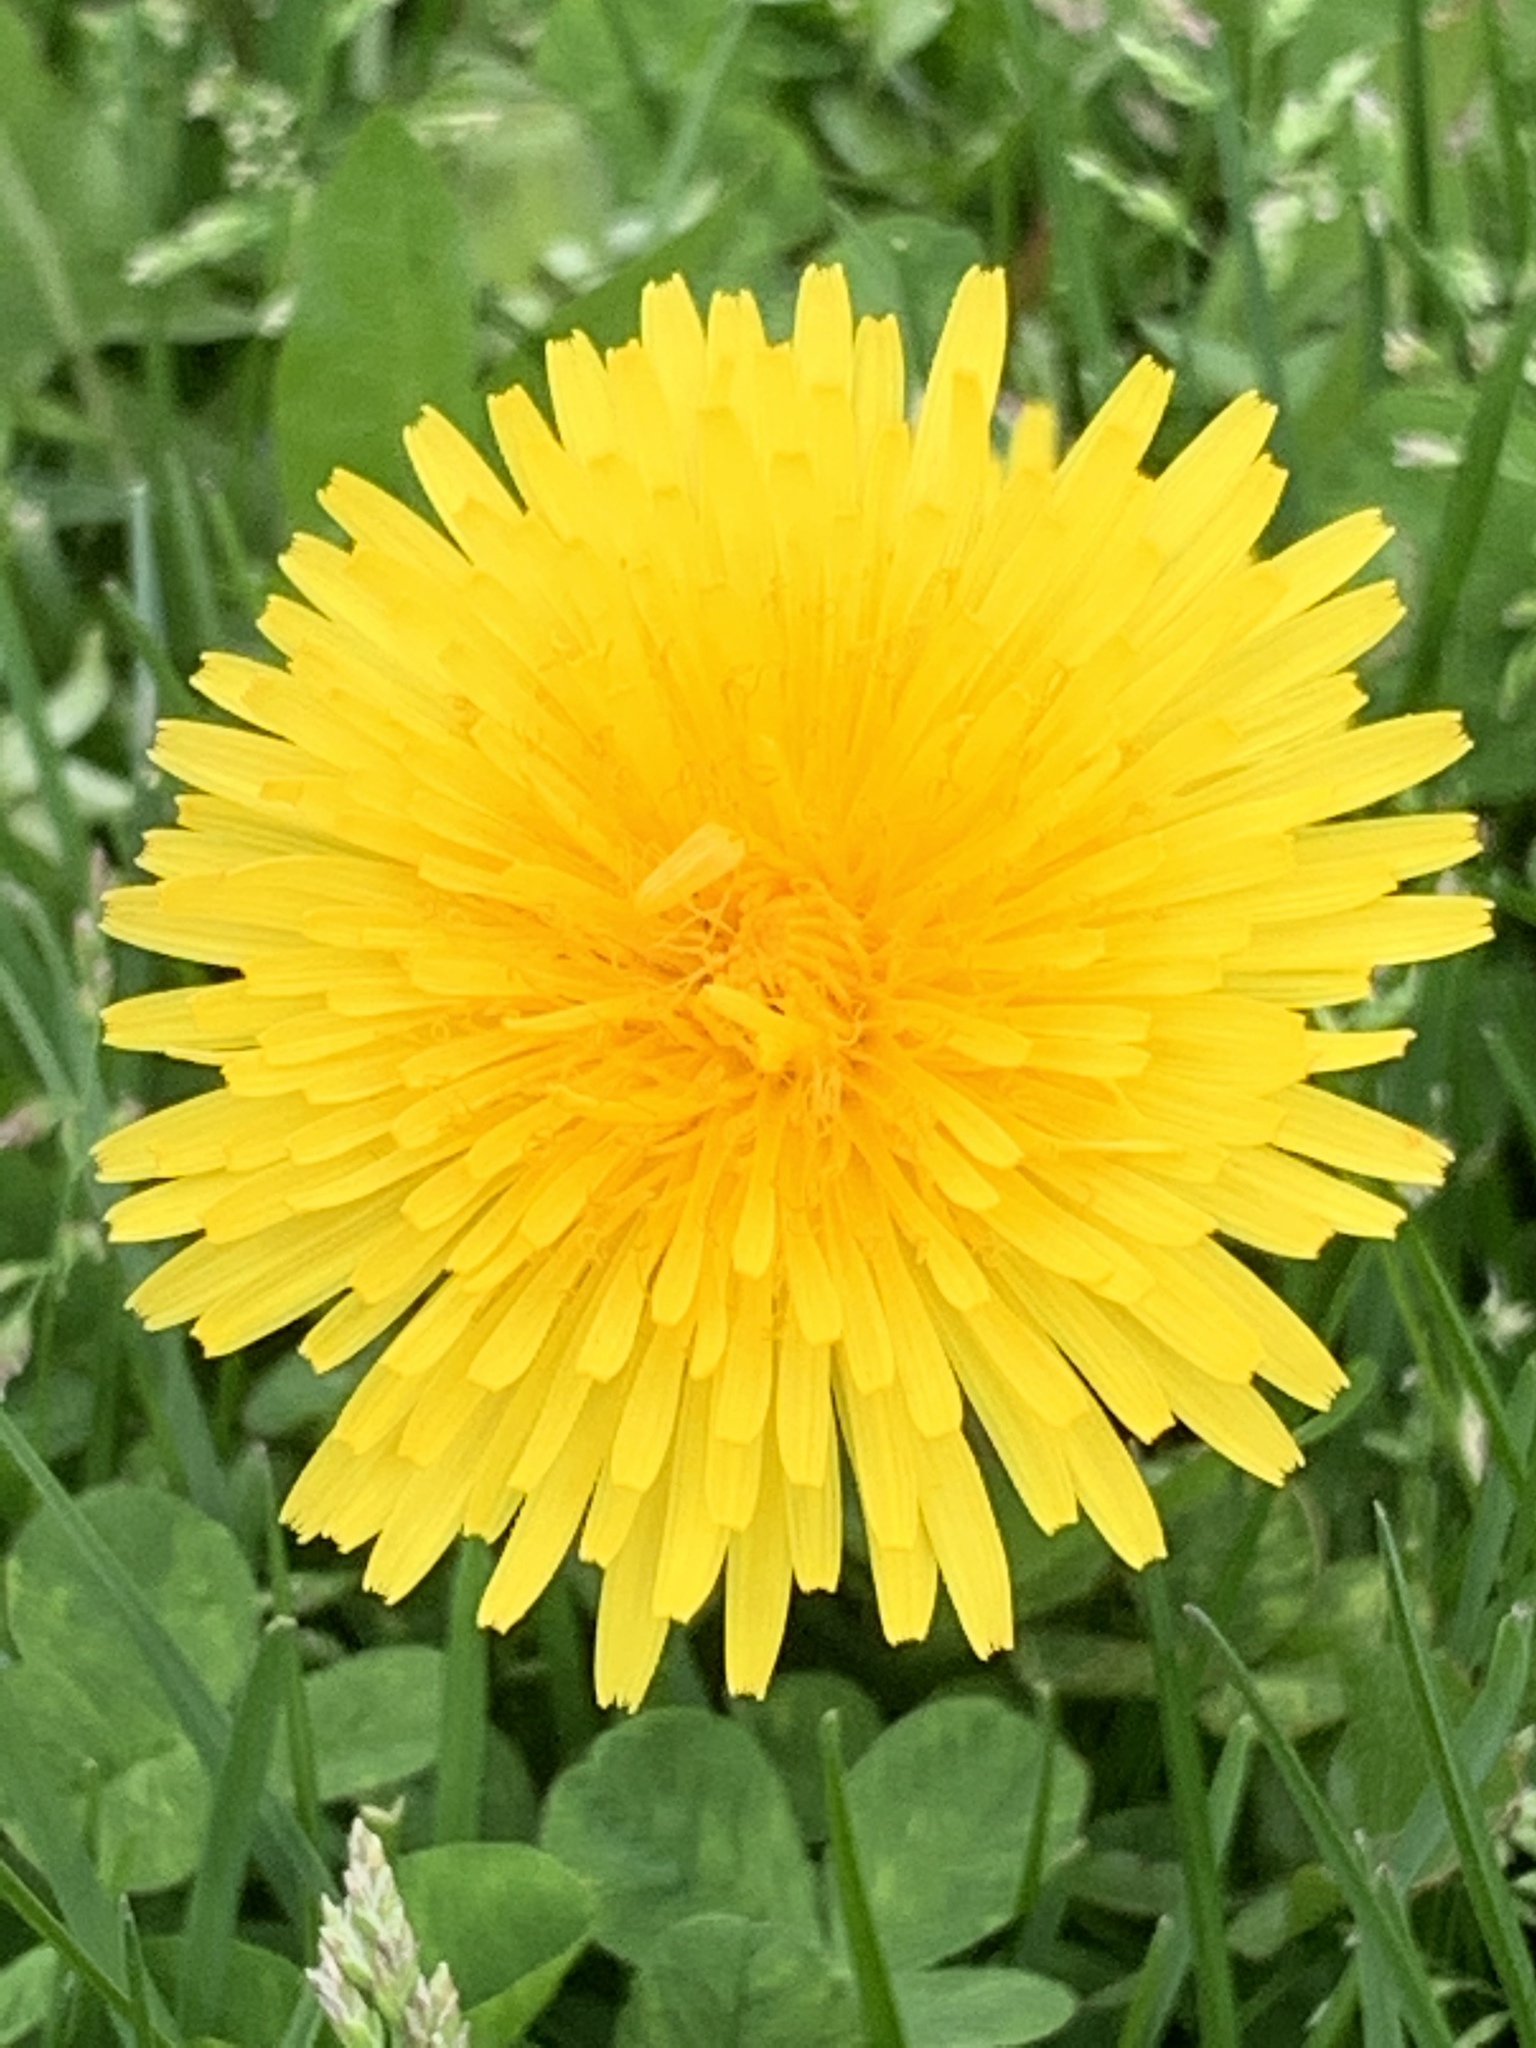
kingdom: Plantae
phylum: Tracheophyta
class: Magnoliopsida
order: Asterales
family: Asteraceae
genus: Taraxacum
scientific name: Taraxacum officinale
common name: Common dandelion
